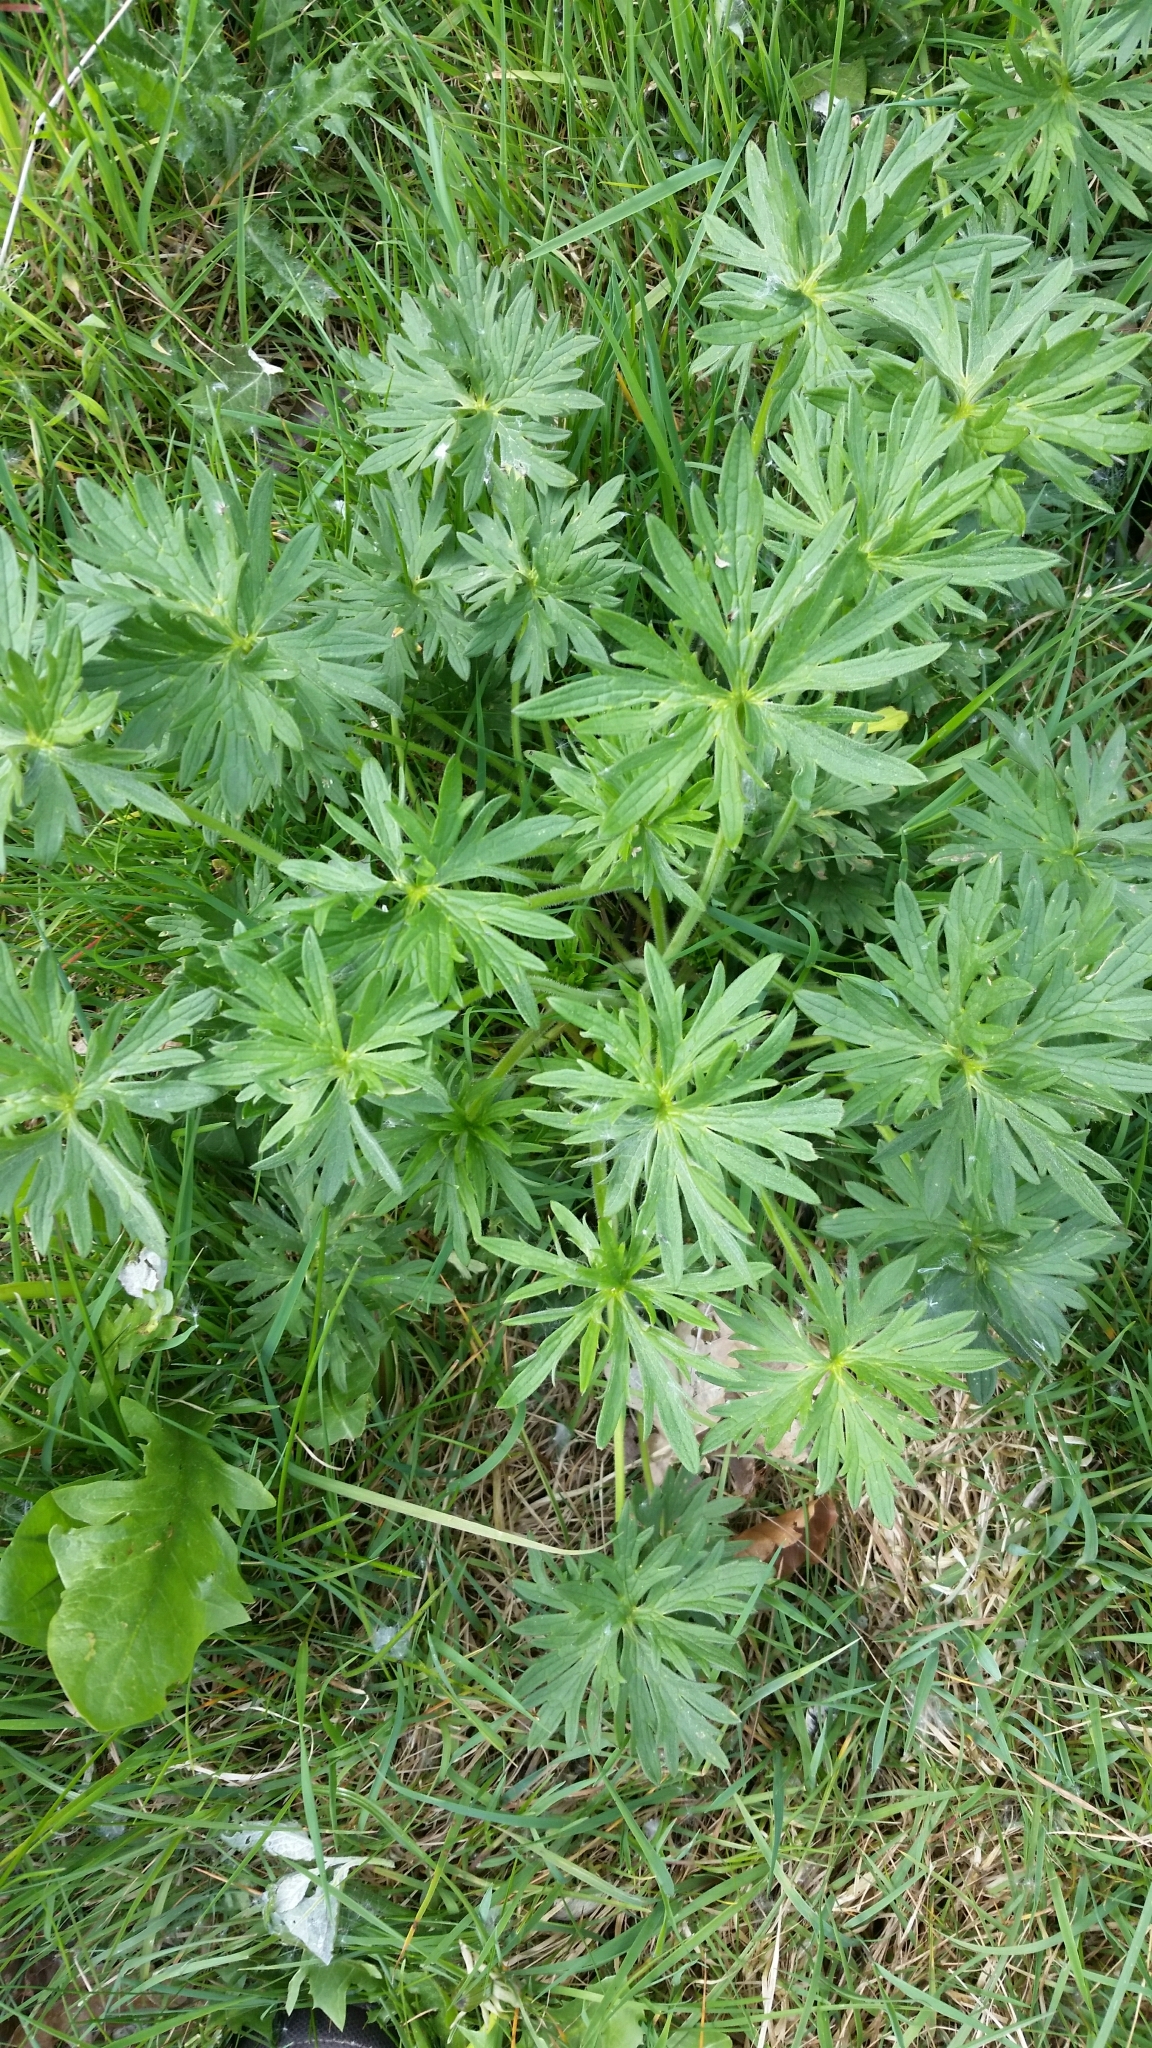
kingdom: Plantae
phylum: Tracheophyta
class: Magnoliopsida
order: Ranunculales
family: Ranunculaceae
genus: Ranunculus
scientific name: Ranunculus acris
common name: Meadow buttercup
